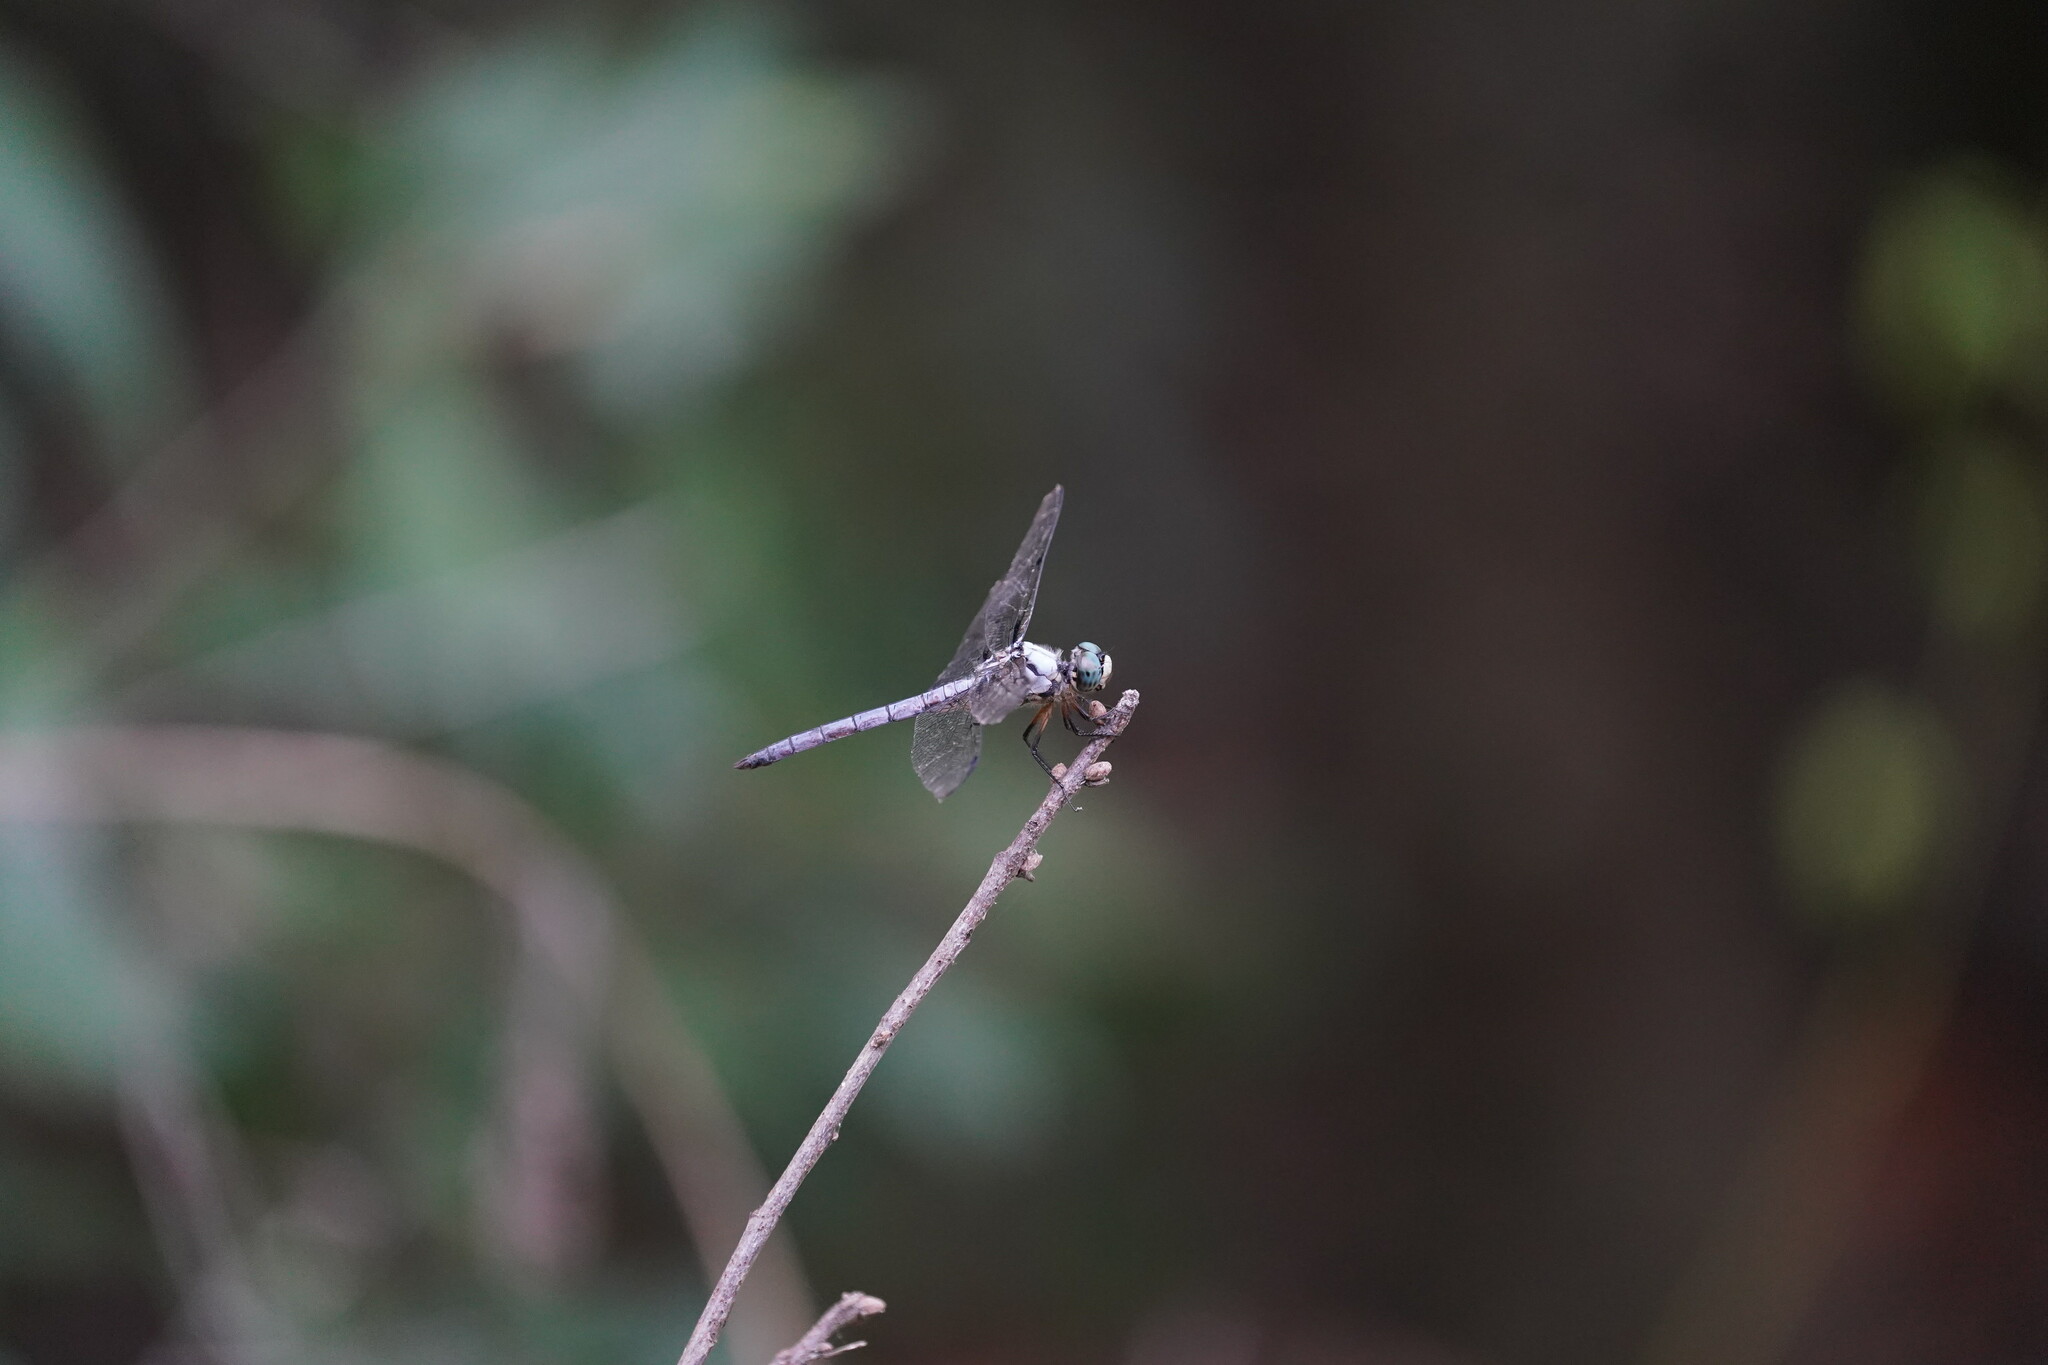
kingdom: Animalia
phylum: Arthropoda
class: Insecta
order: Odonata
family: Libellulidae
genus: Libellula
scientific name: Libellula vibrans
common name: Great blue skimmer
